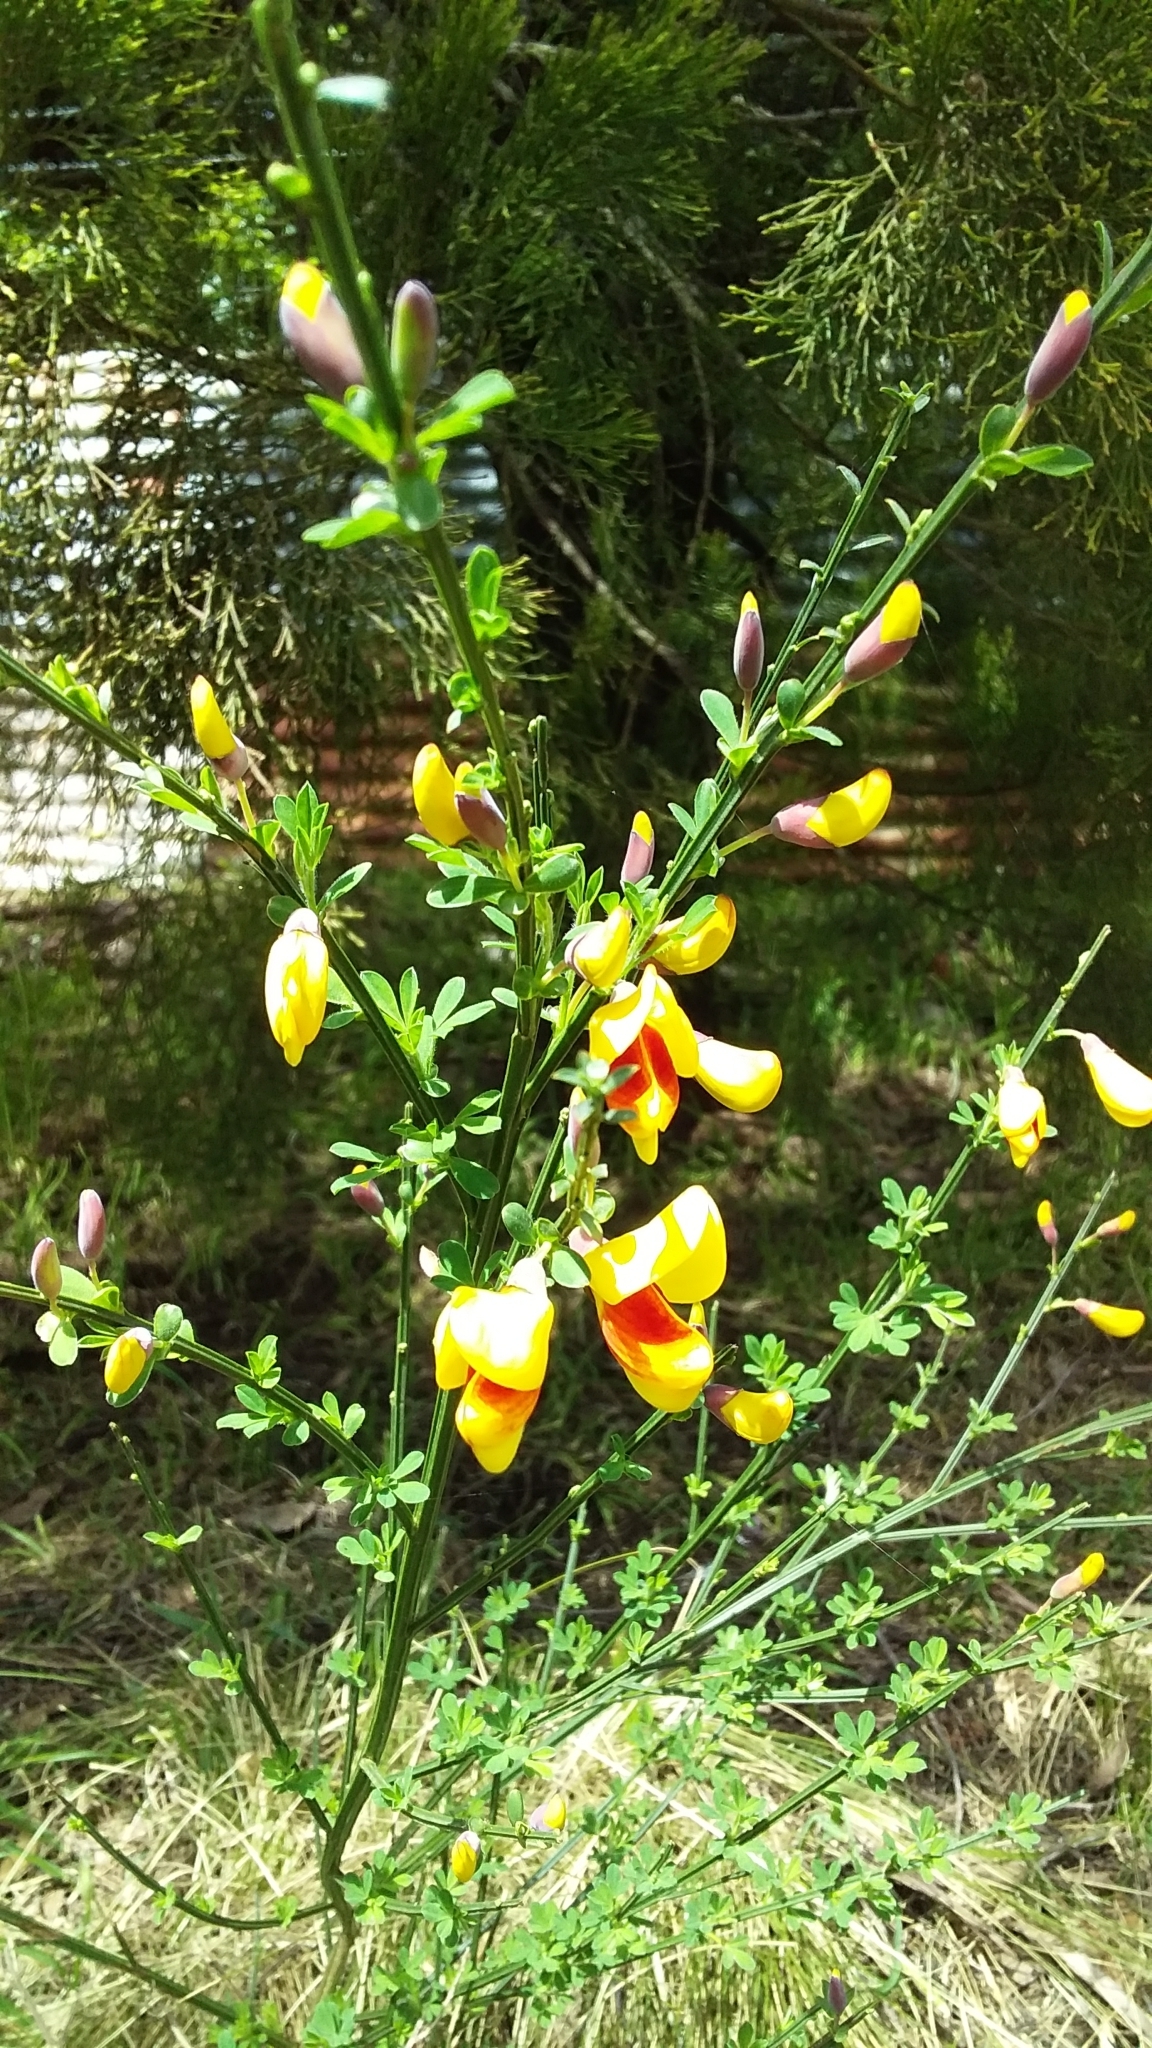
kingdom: Plantae
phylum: Tracheophyta
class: Magnoliopsida
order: Fabales
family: Fabaceae
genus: Cytisus
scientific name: Cytisus scoparius
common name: Scotch broom
